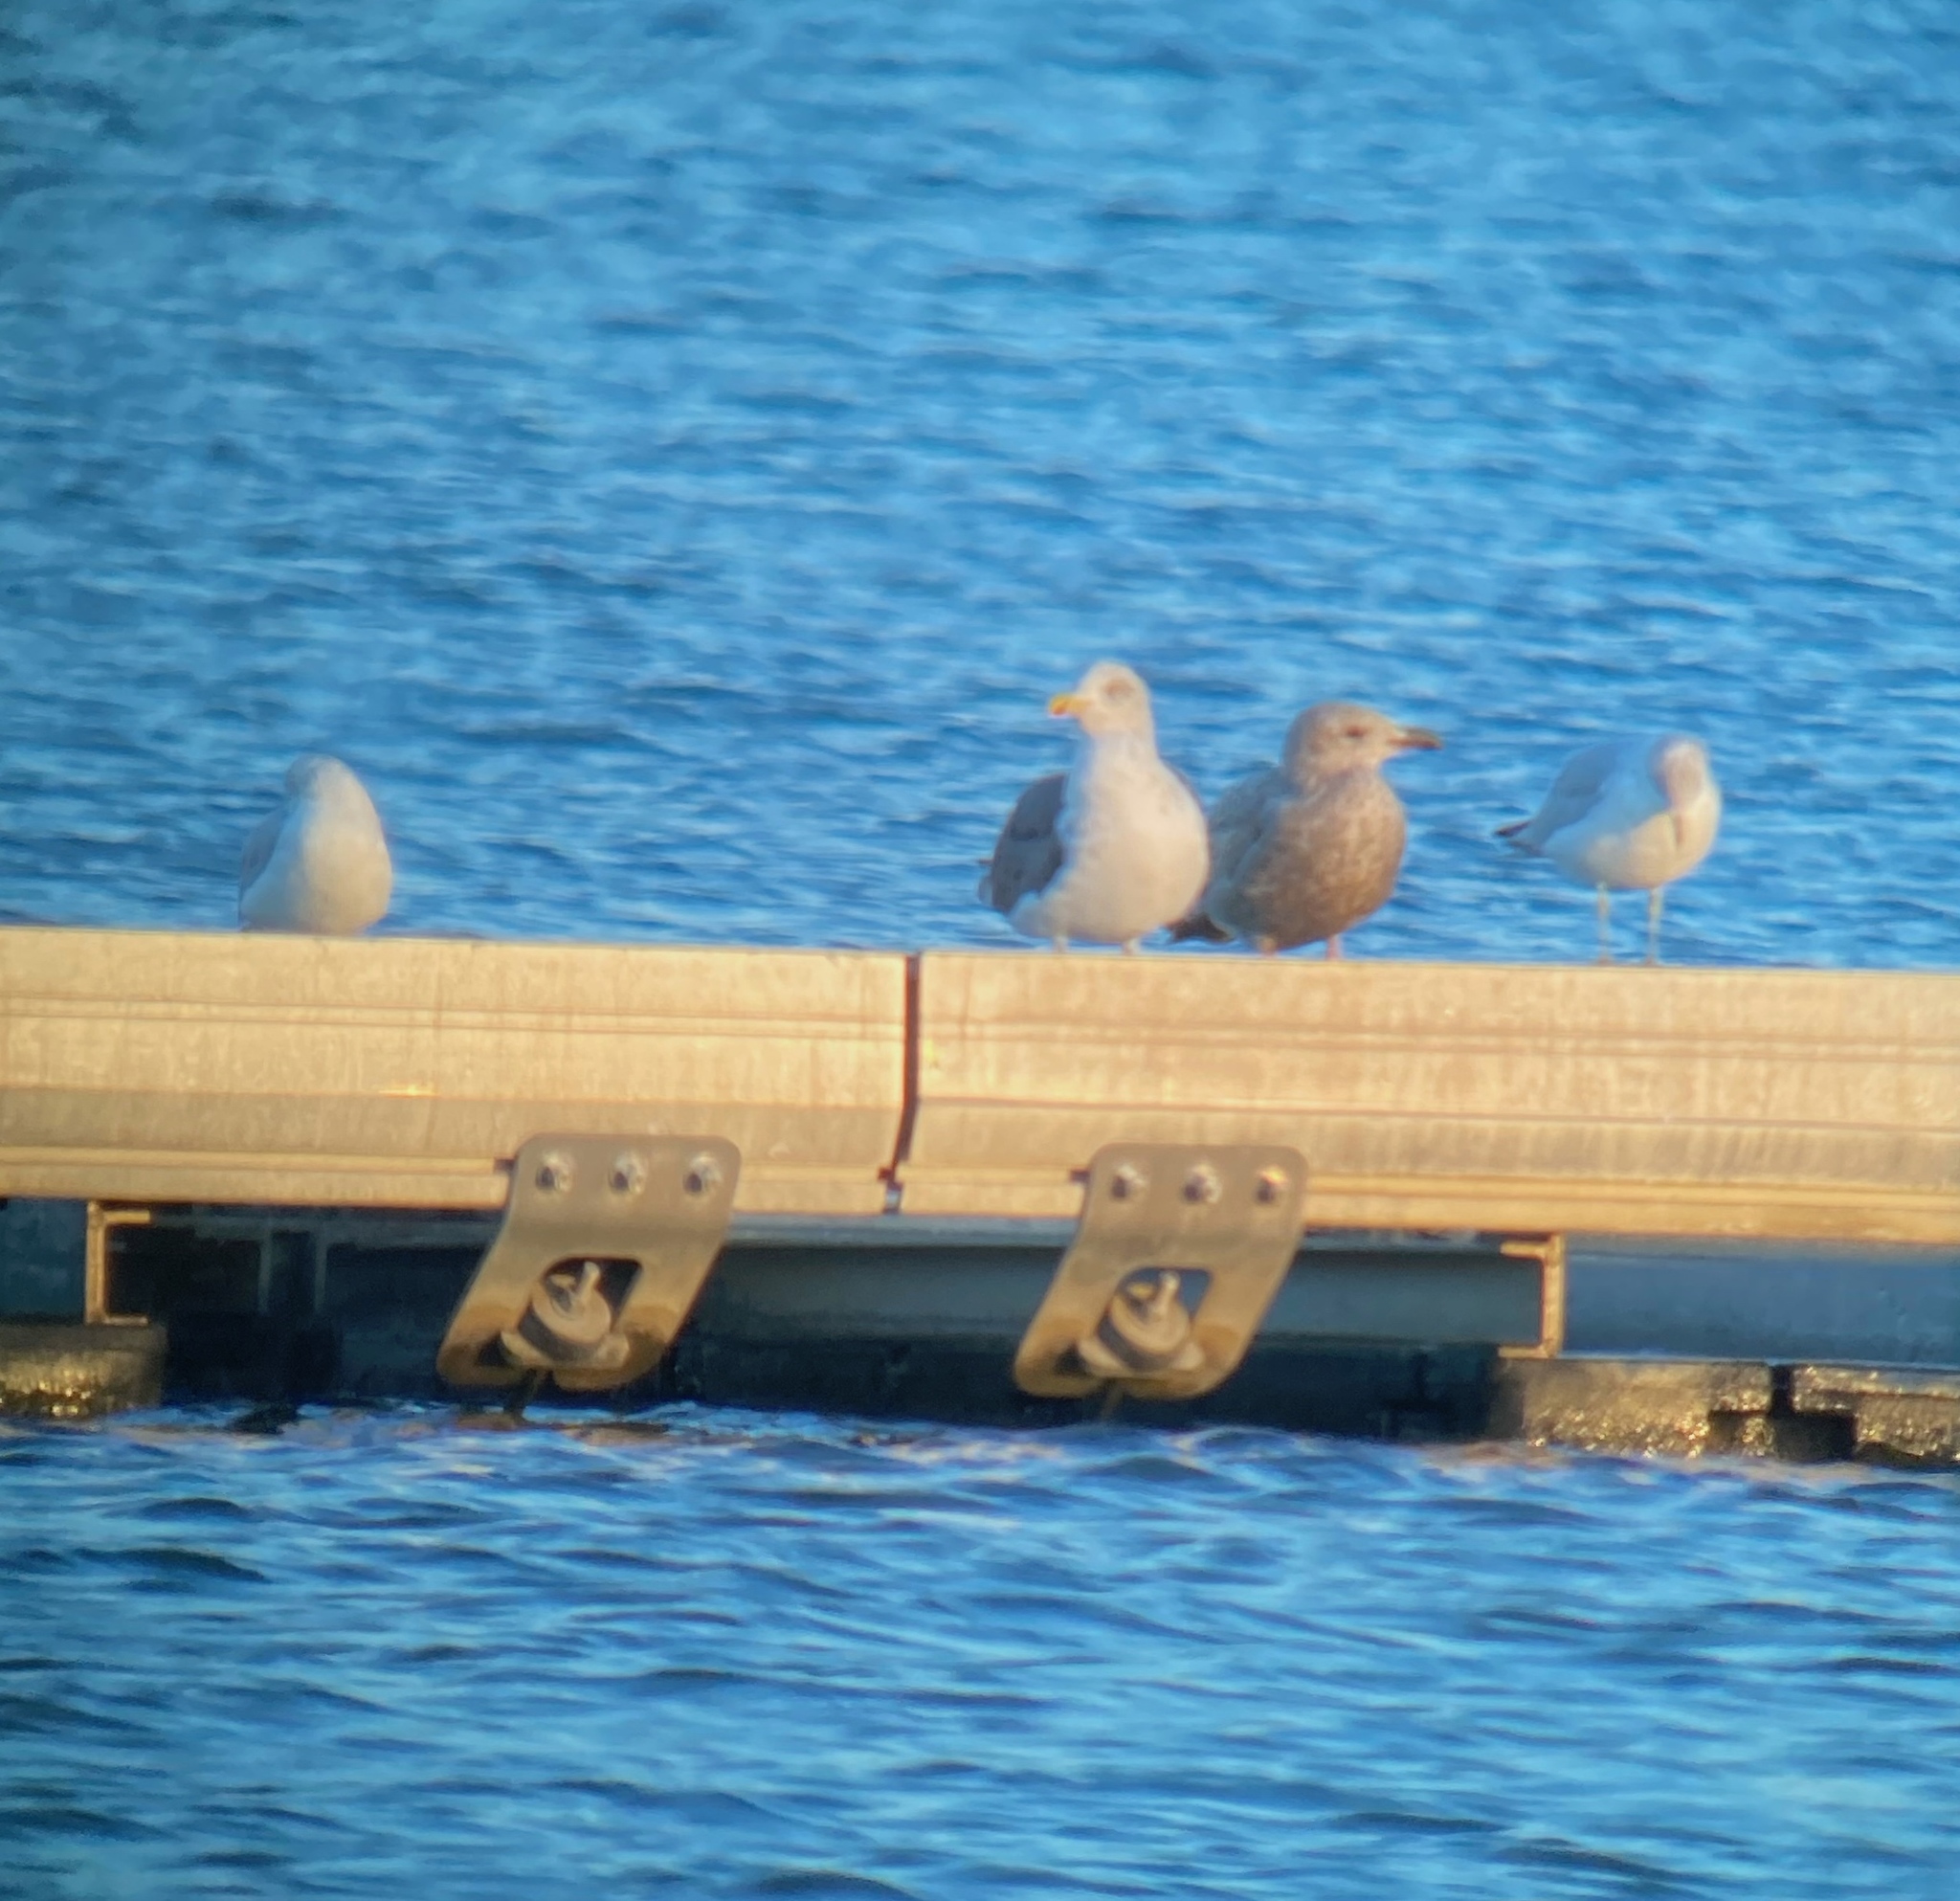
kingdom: Animalia
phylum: Chordata
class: Aves
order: Charadriiformes
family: Laridae
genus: Larus
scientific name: Larus fuscus
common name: Lesser black-backed gull
